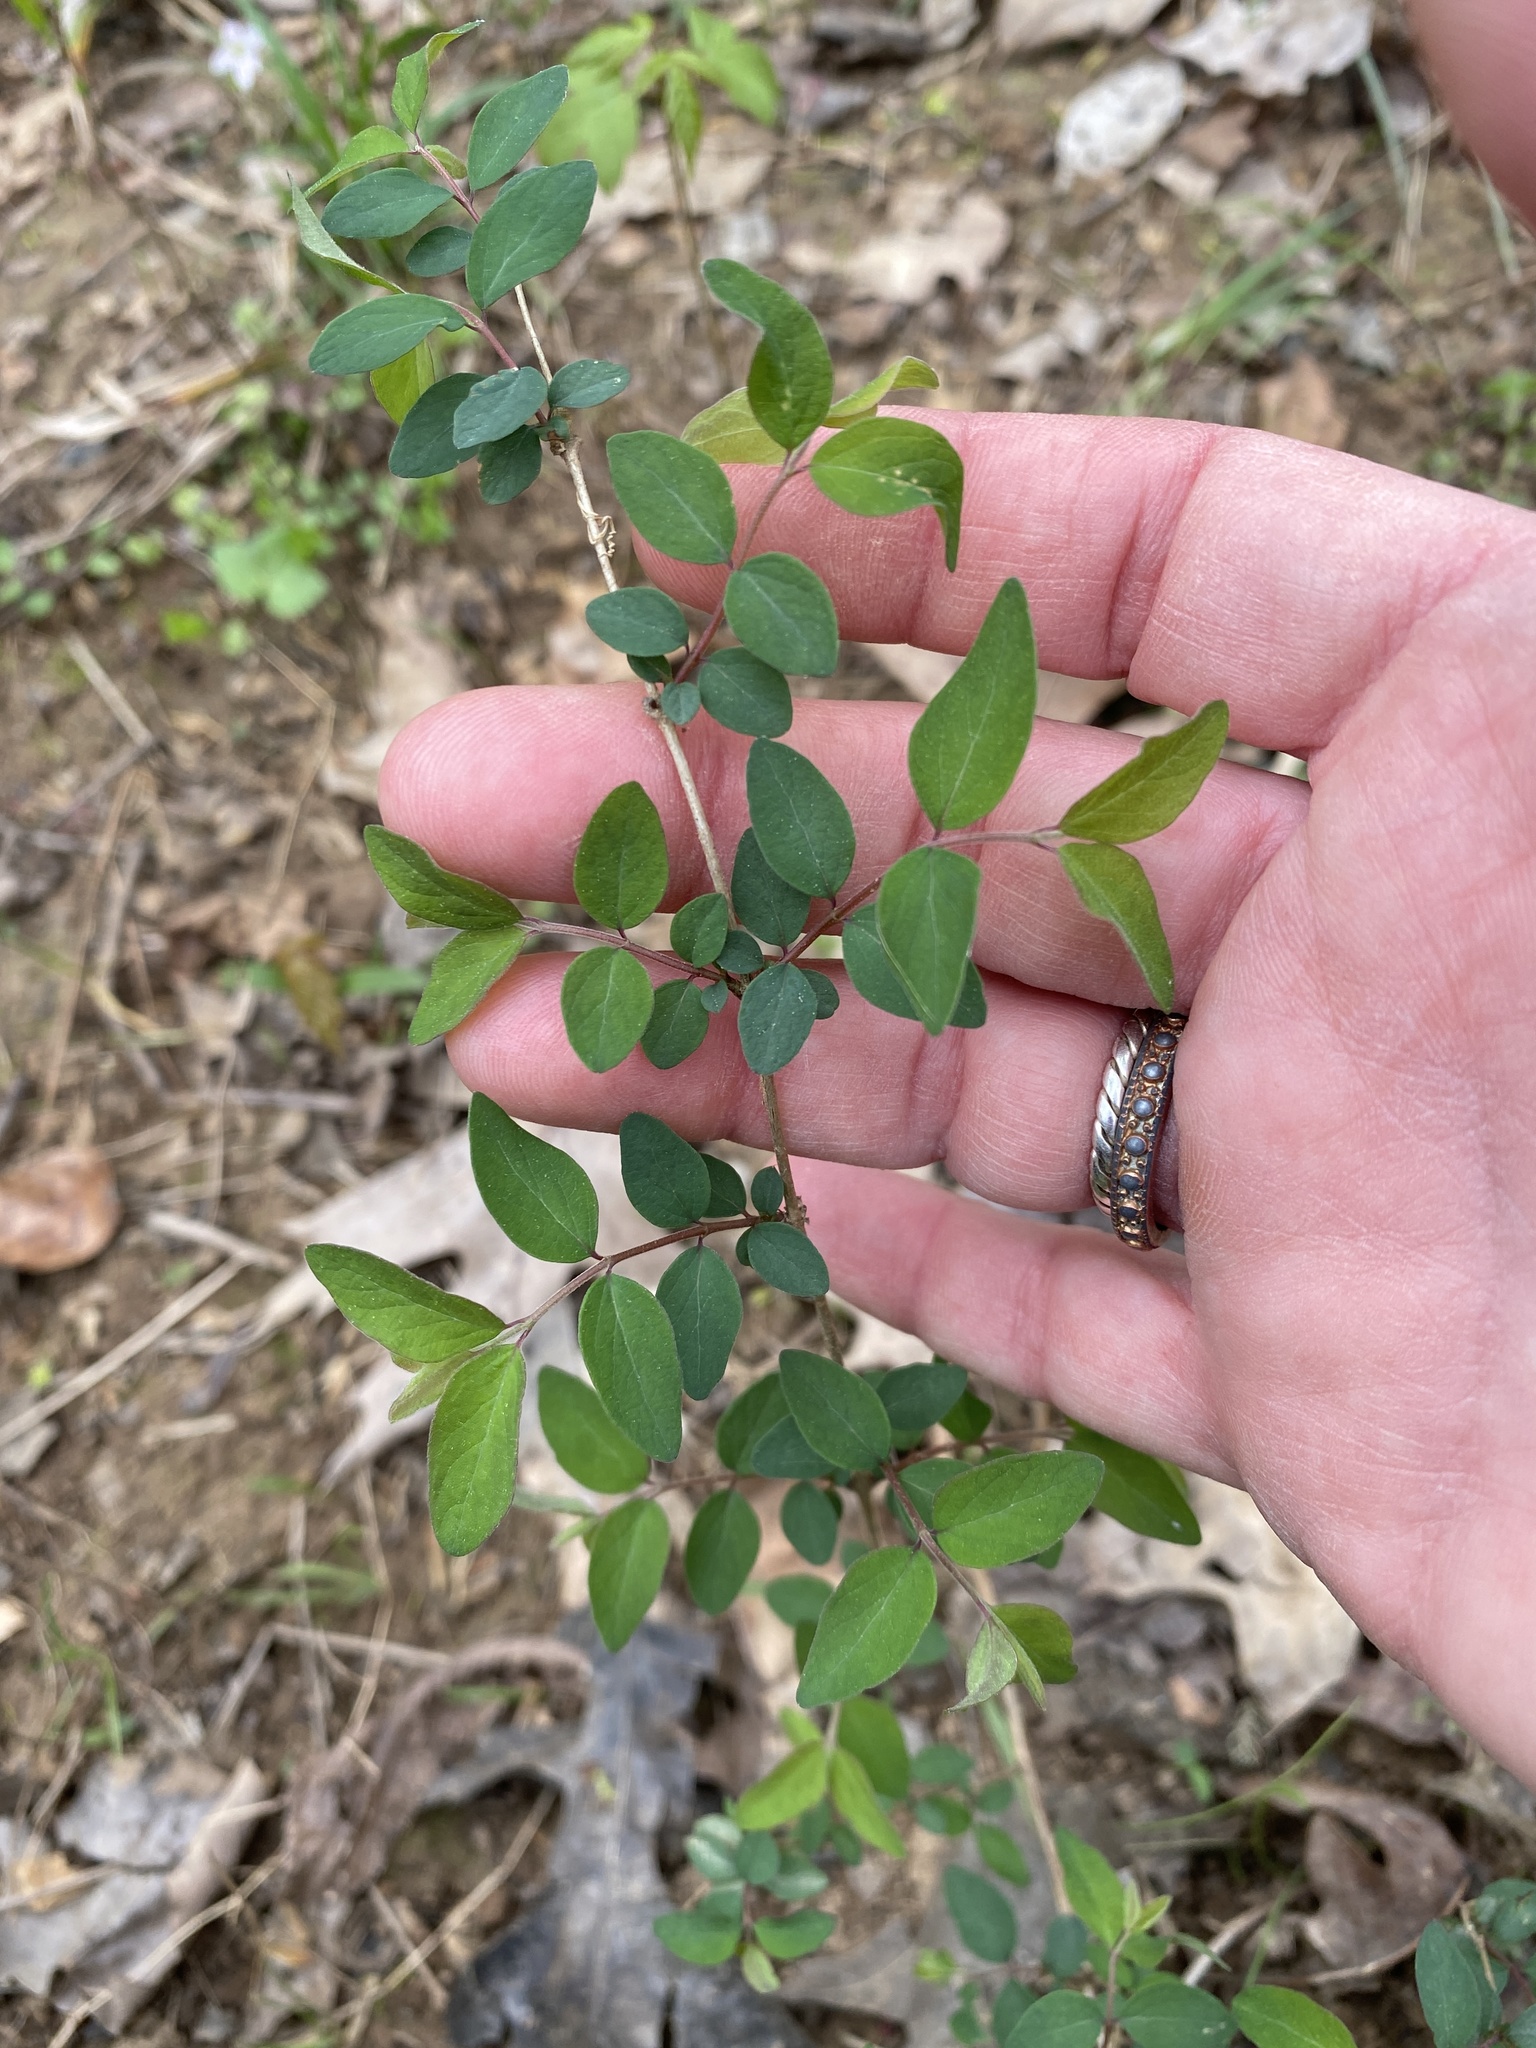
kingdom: Plantae
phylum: Tracheophyta
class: Magnoliopsida
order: Dipsacales
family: Caprifoliaceae
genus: Symphoricarpos
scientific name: Symphoricarpos orbiculatus
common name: Coralberry
